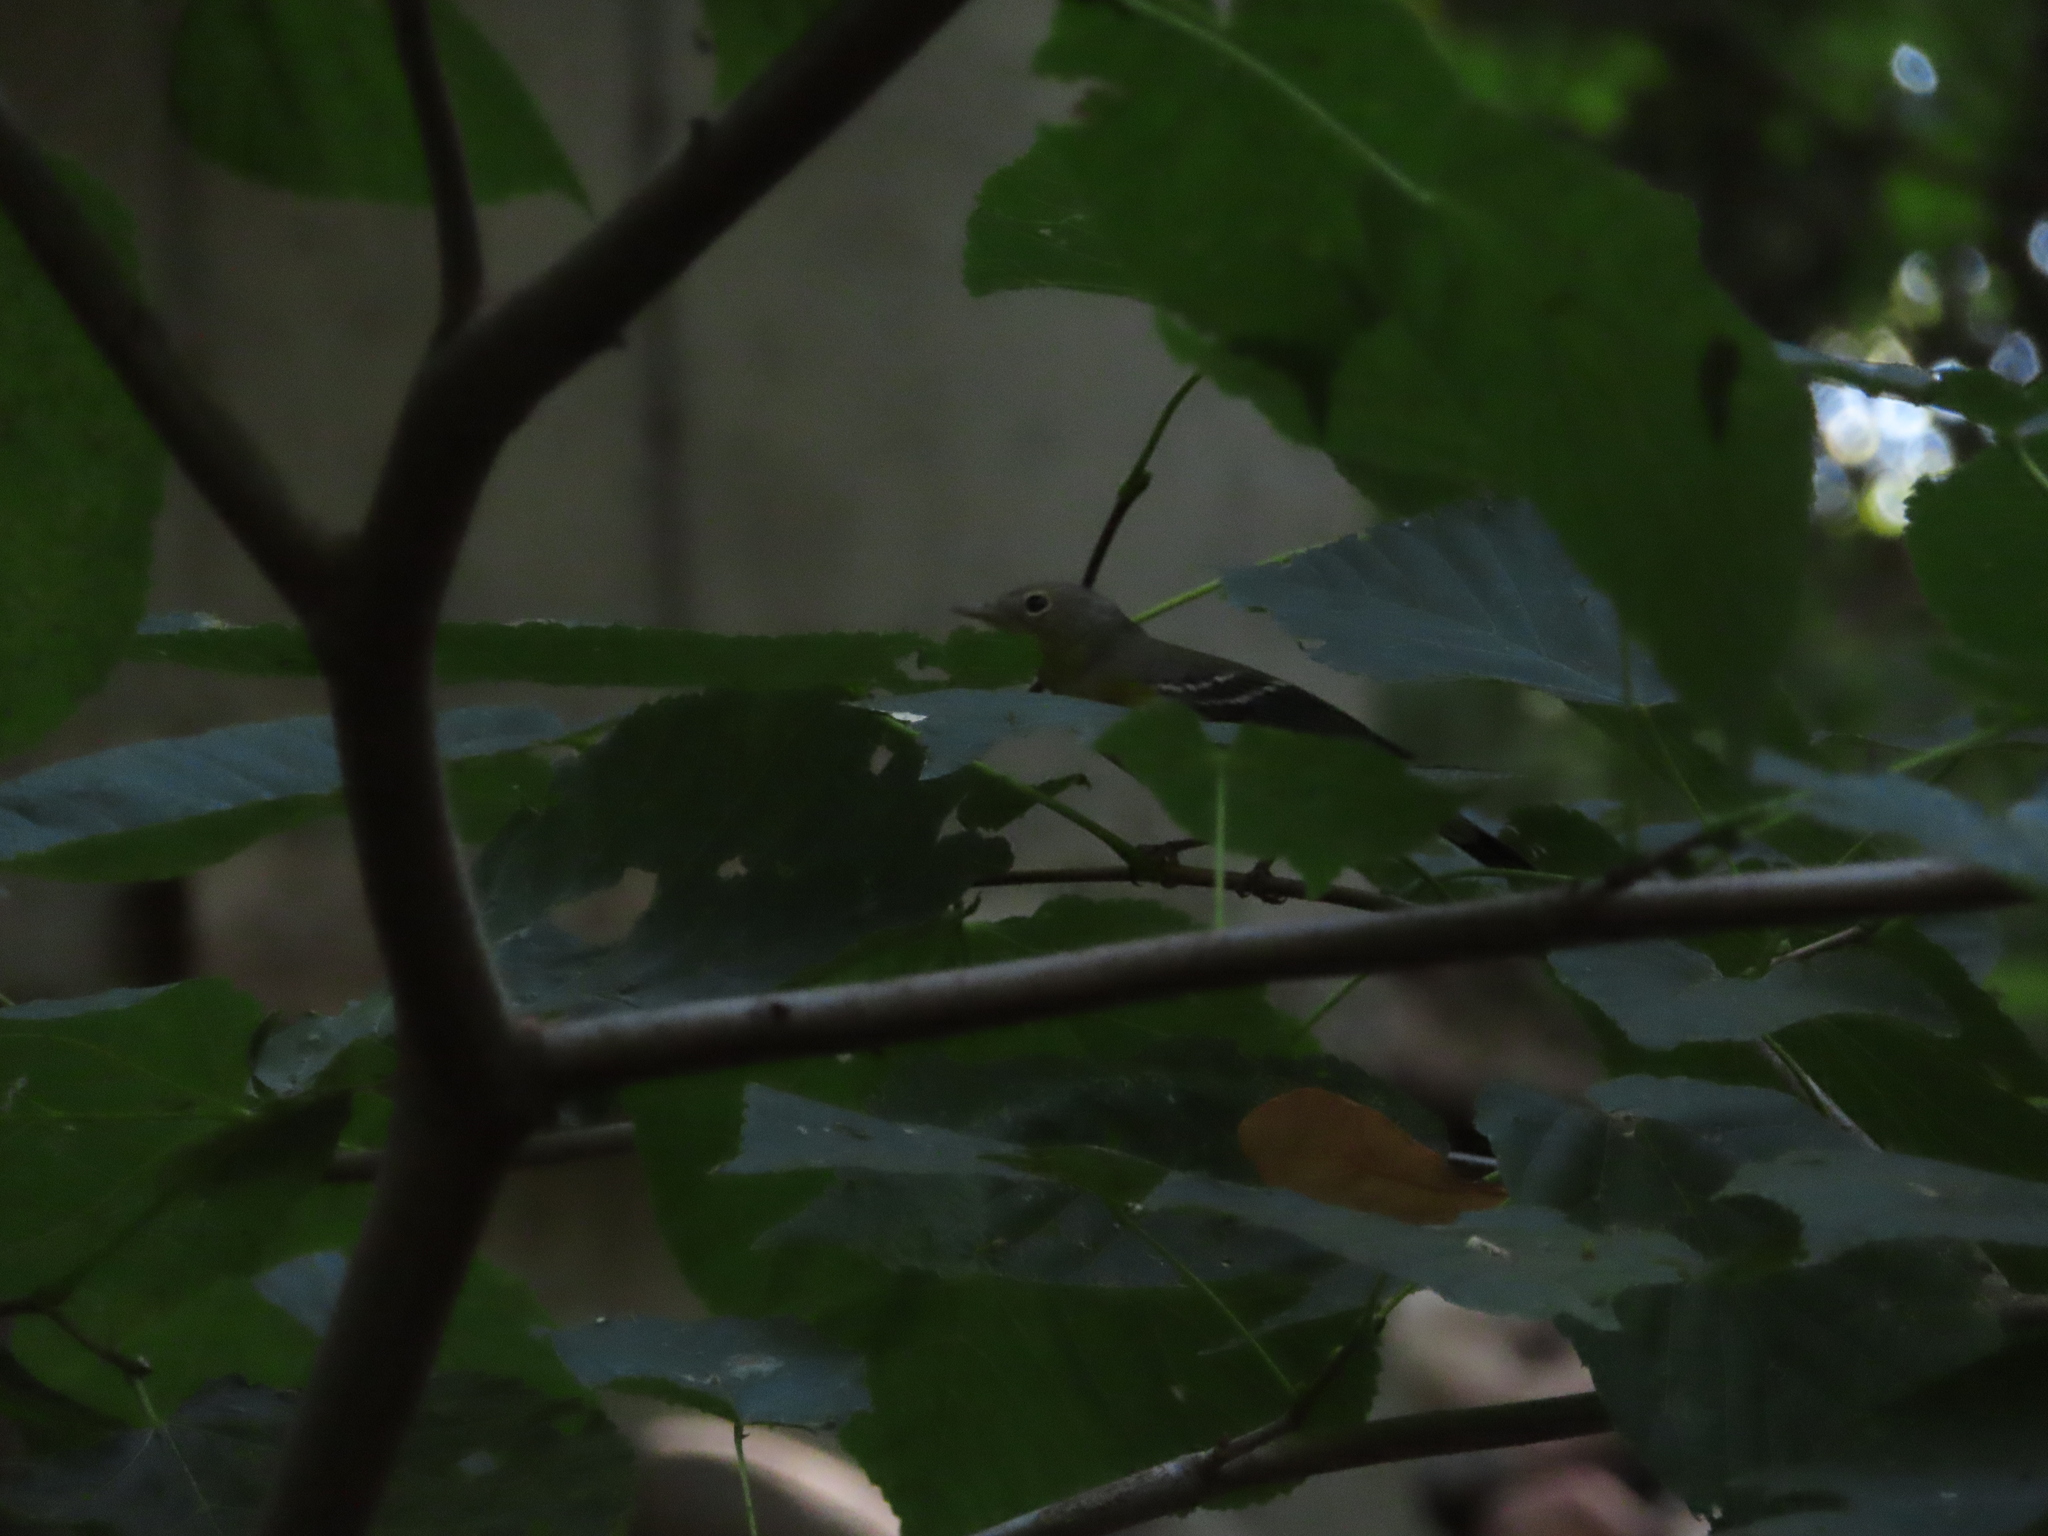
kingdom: Animalia
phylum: Chordata
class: Aves
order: Passeriformes
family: Parulidae
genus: Setophaga
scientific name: Setophaga magnolia
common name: Magnolia warbler
